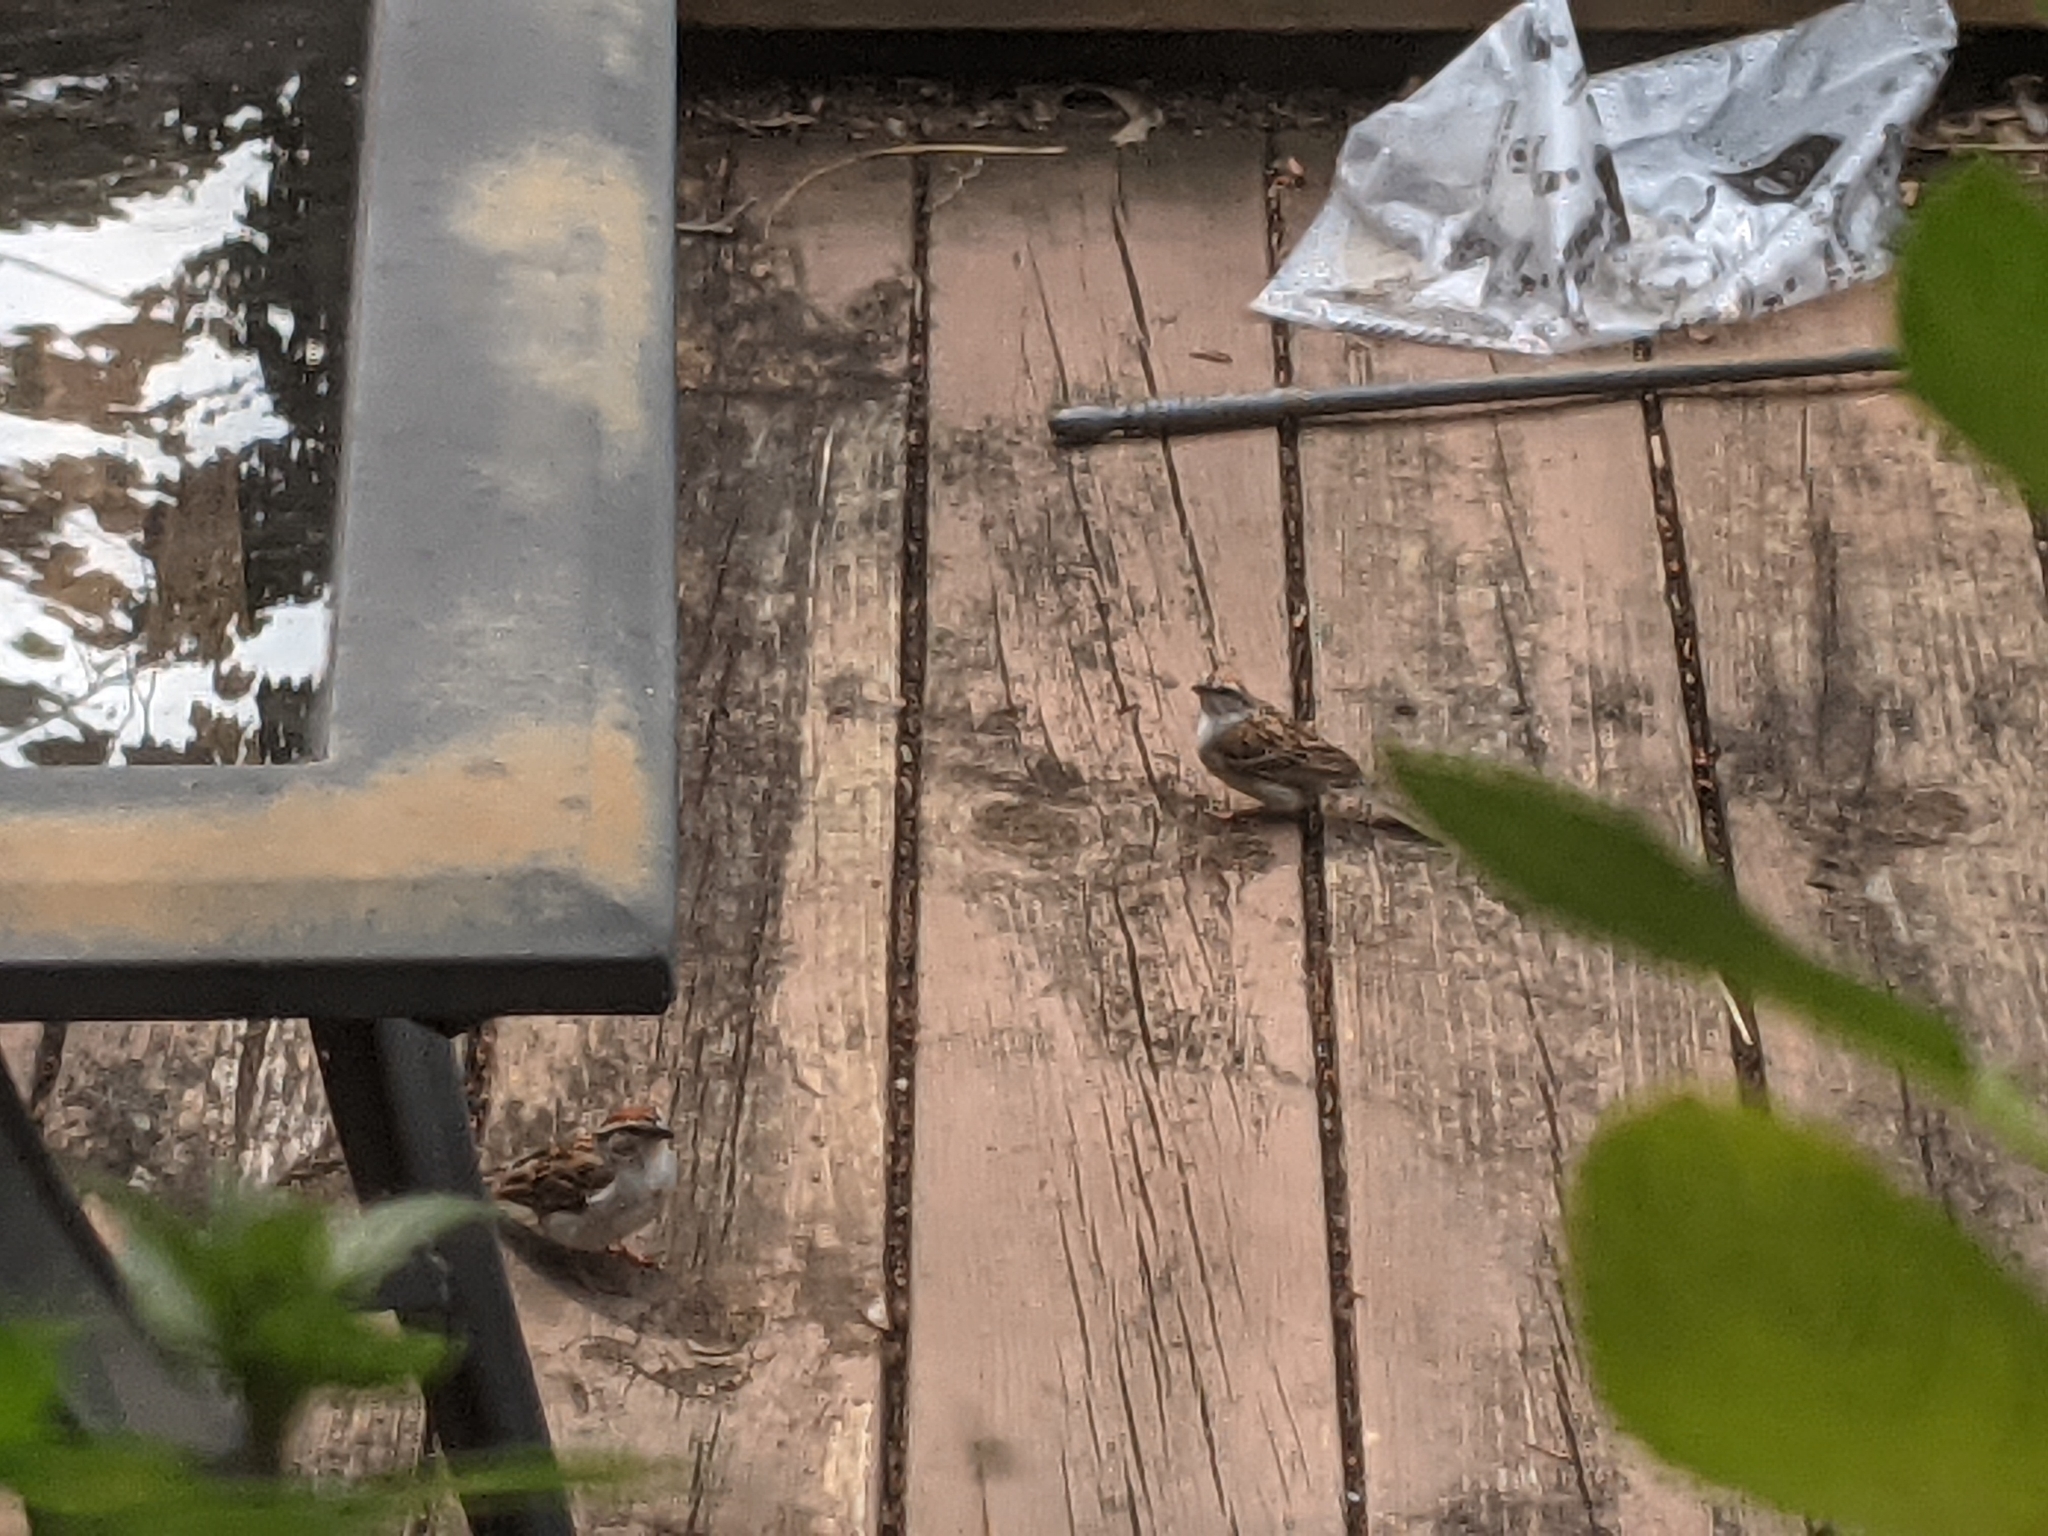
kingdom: Animalia
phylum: Chordata
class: Aves
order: Passeriformes
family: Passerellidae
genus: Spizella
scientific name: Spizella passerina
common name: Chipping sparrow
